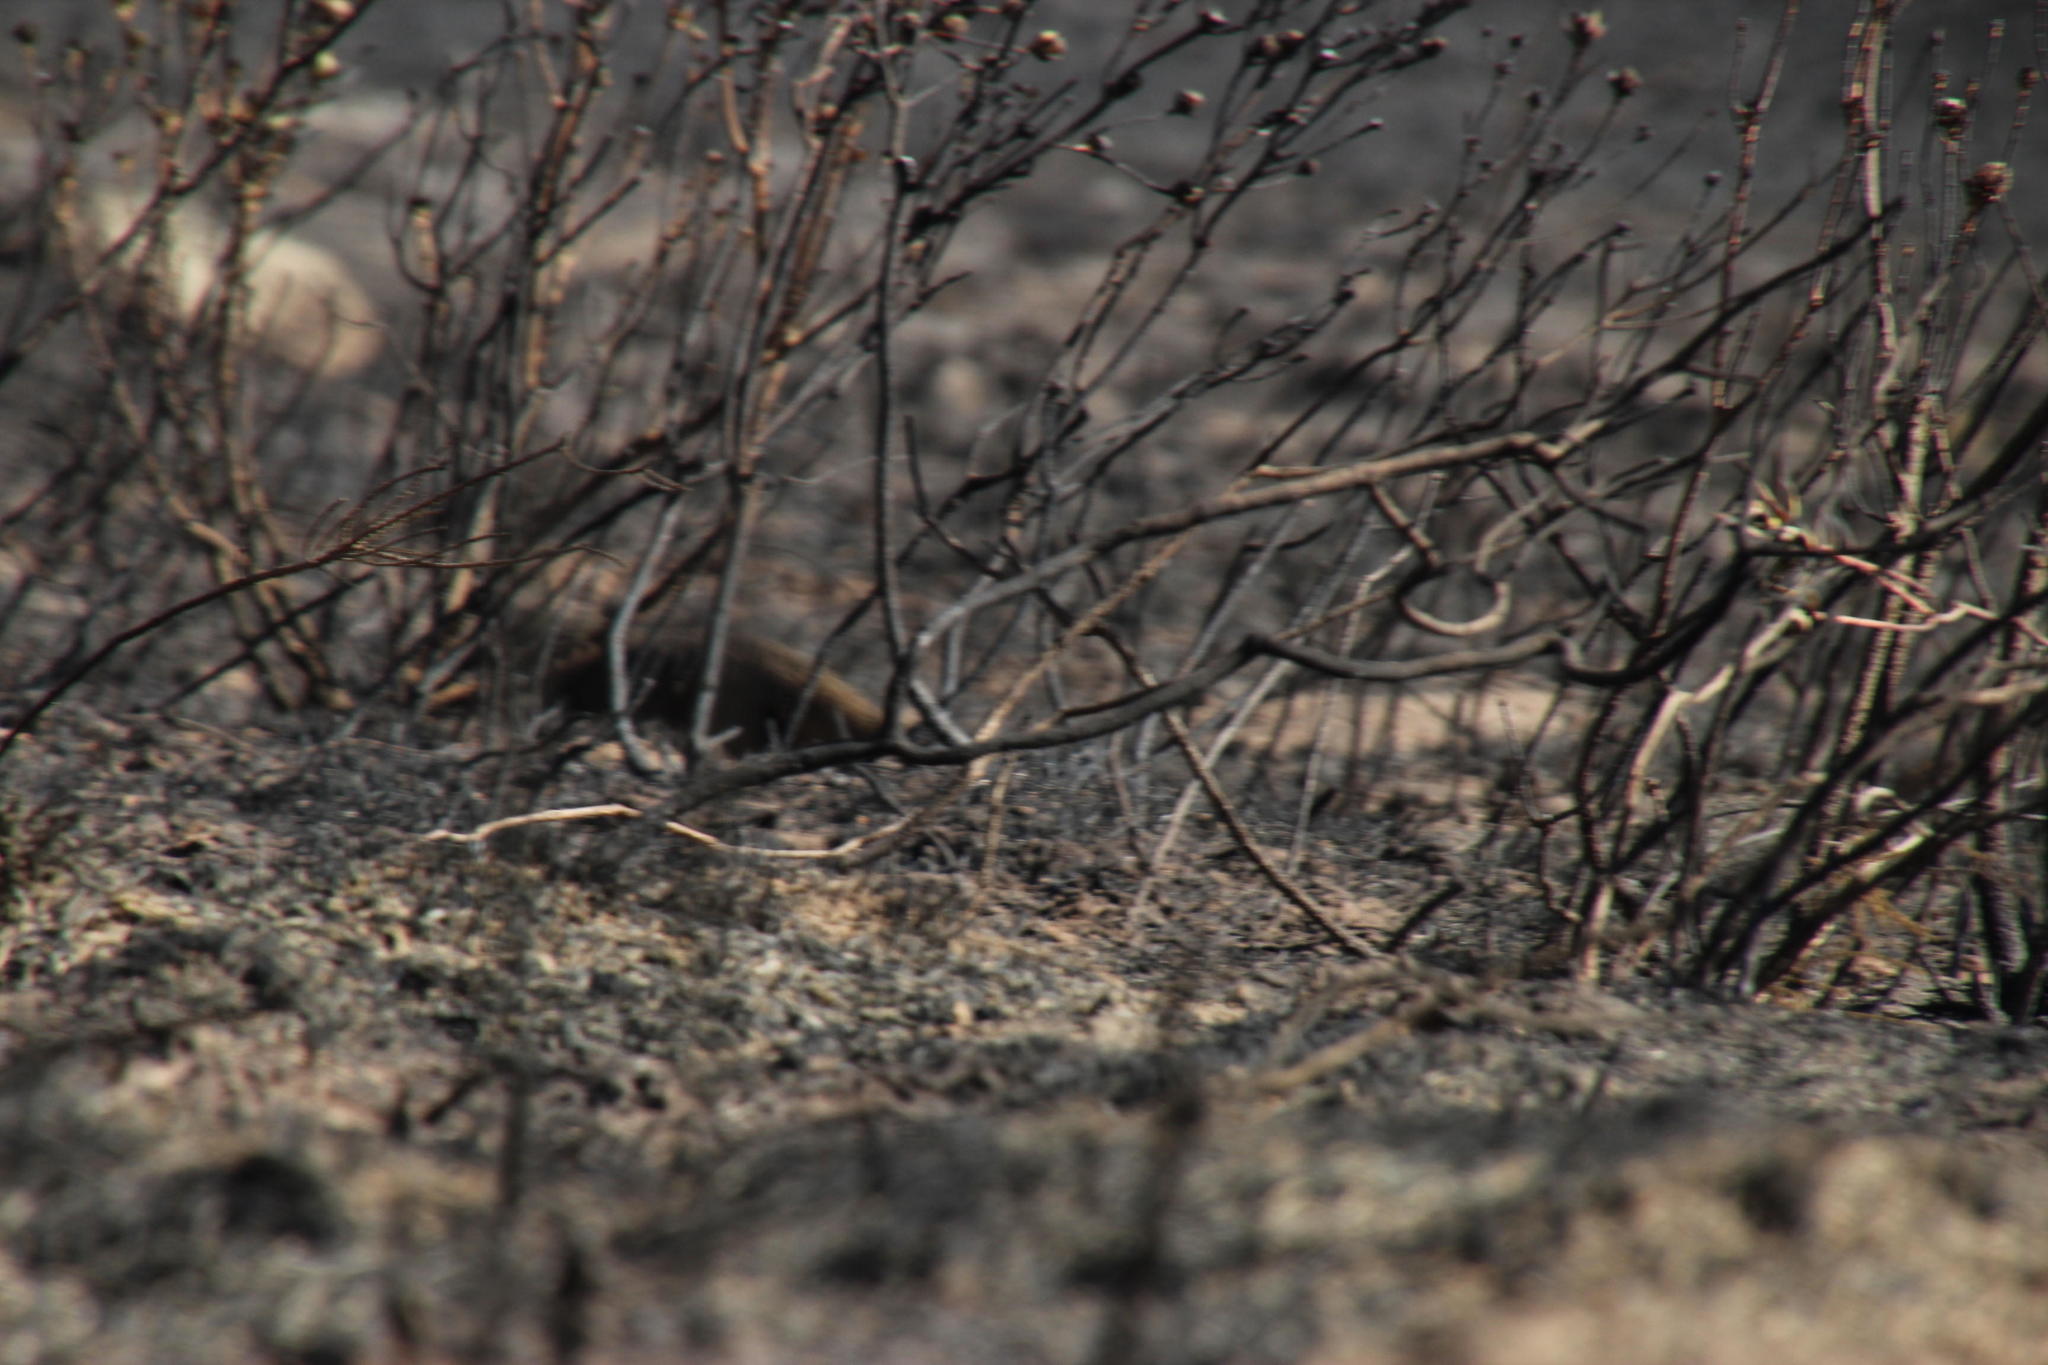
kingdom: Animalia
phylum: Chordata
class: Mammalia
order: Carnivora
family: Herpestidae
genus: Galerella
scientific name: Galerella pulverulenta
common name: Cape gray mongoose
